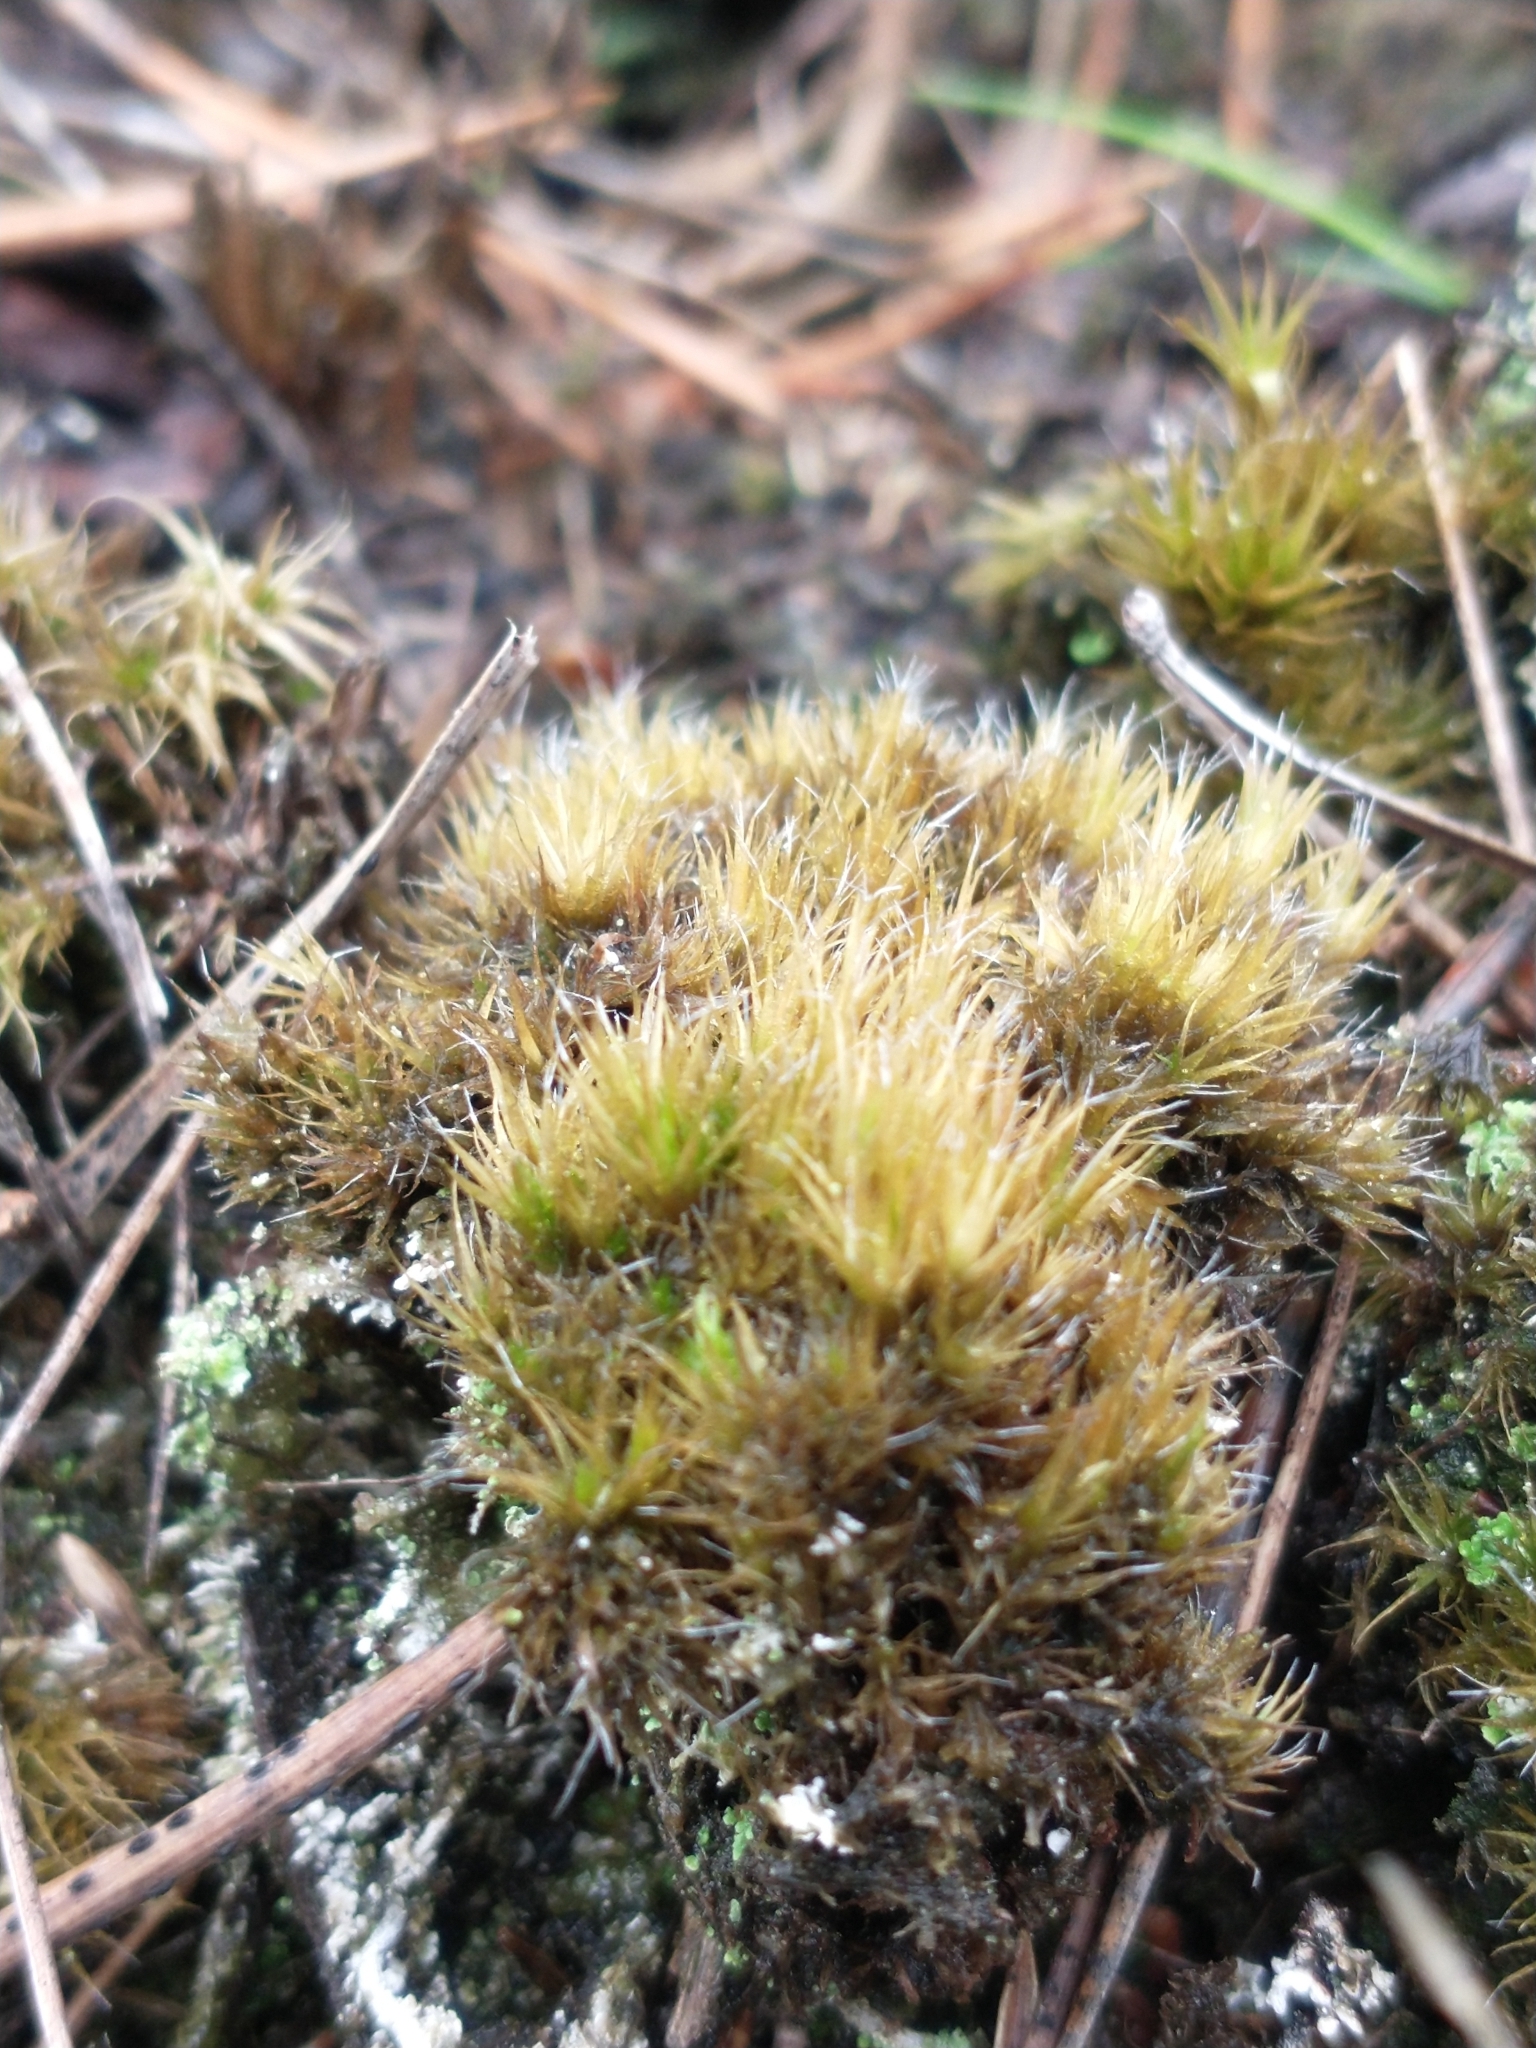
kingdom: Plantae
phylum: Bryophyta
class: Bryopsida
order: Dicranales
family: Leucobryaceae
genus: Campylopus
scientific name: Campylopus introflexus
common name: Heath star moss
